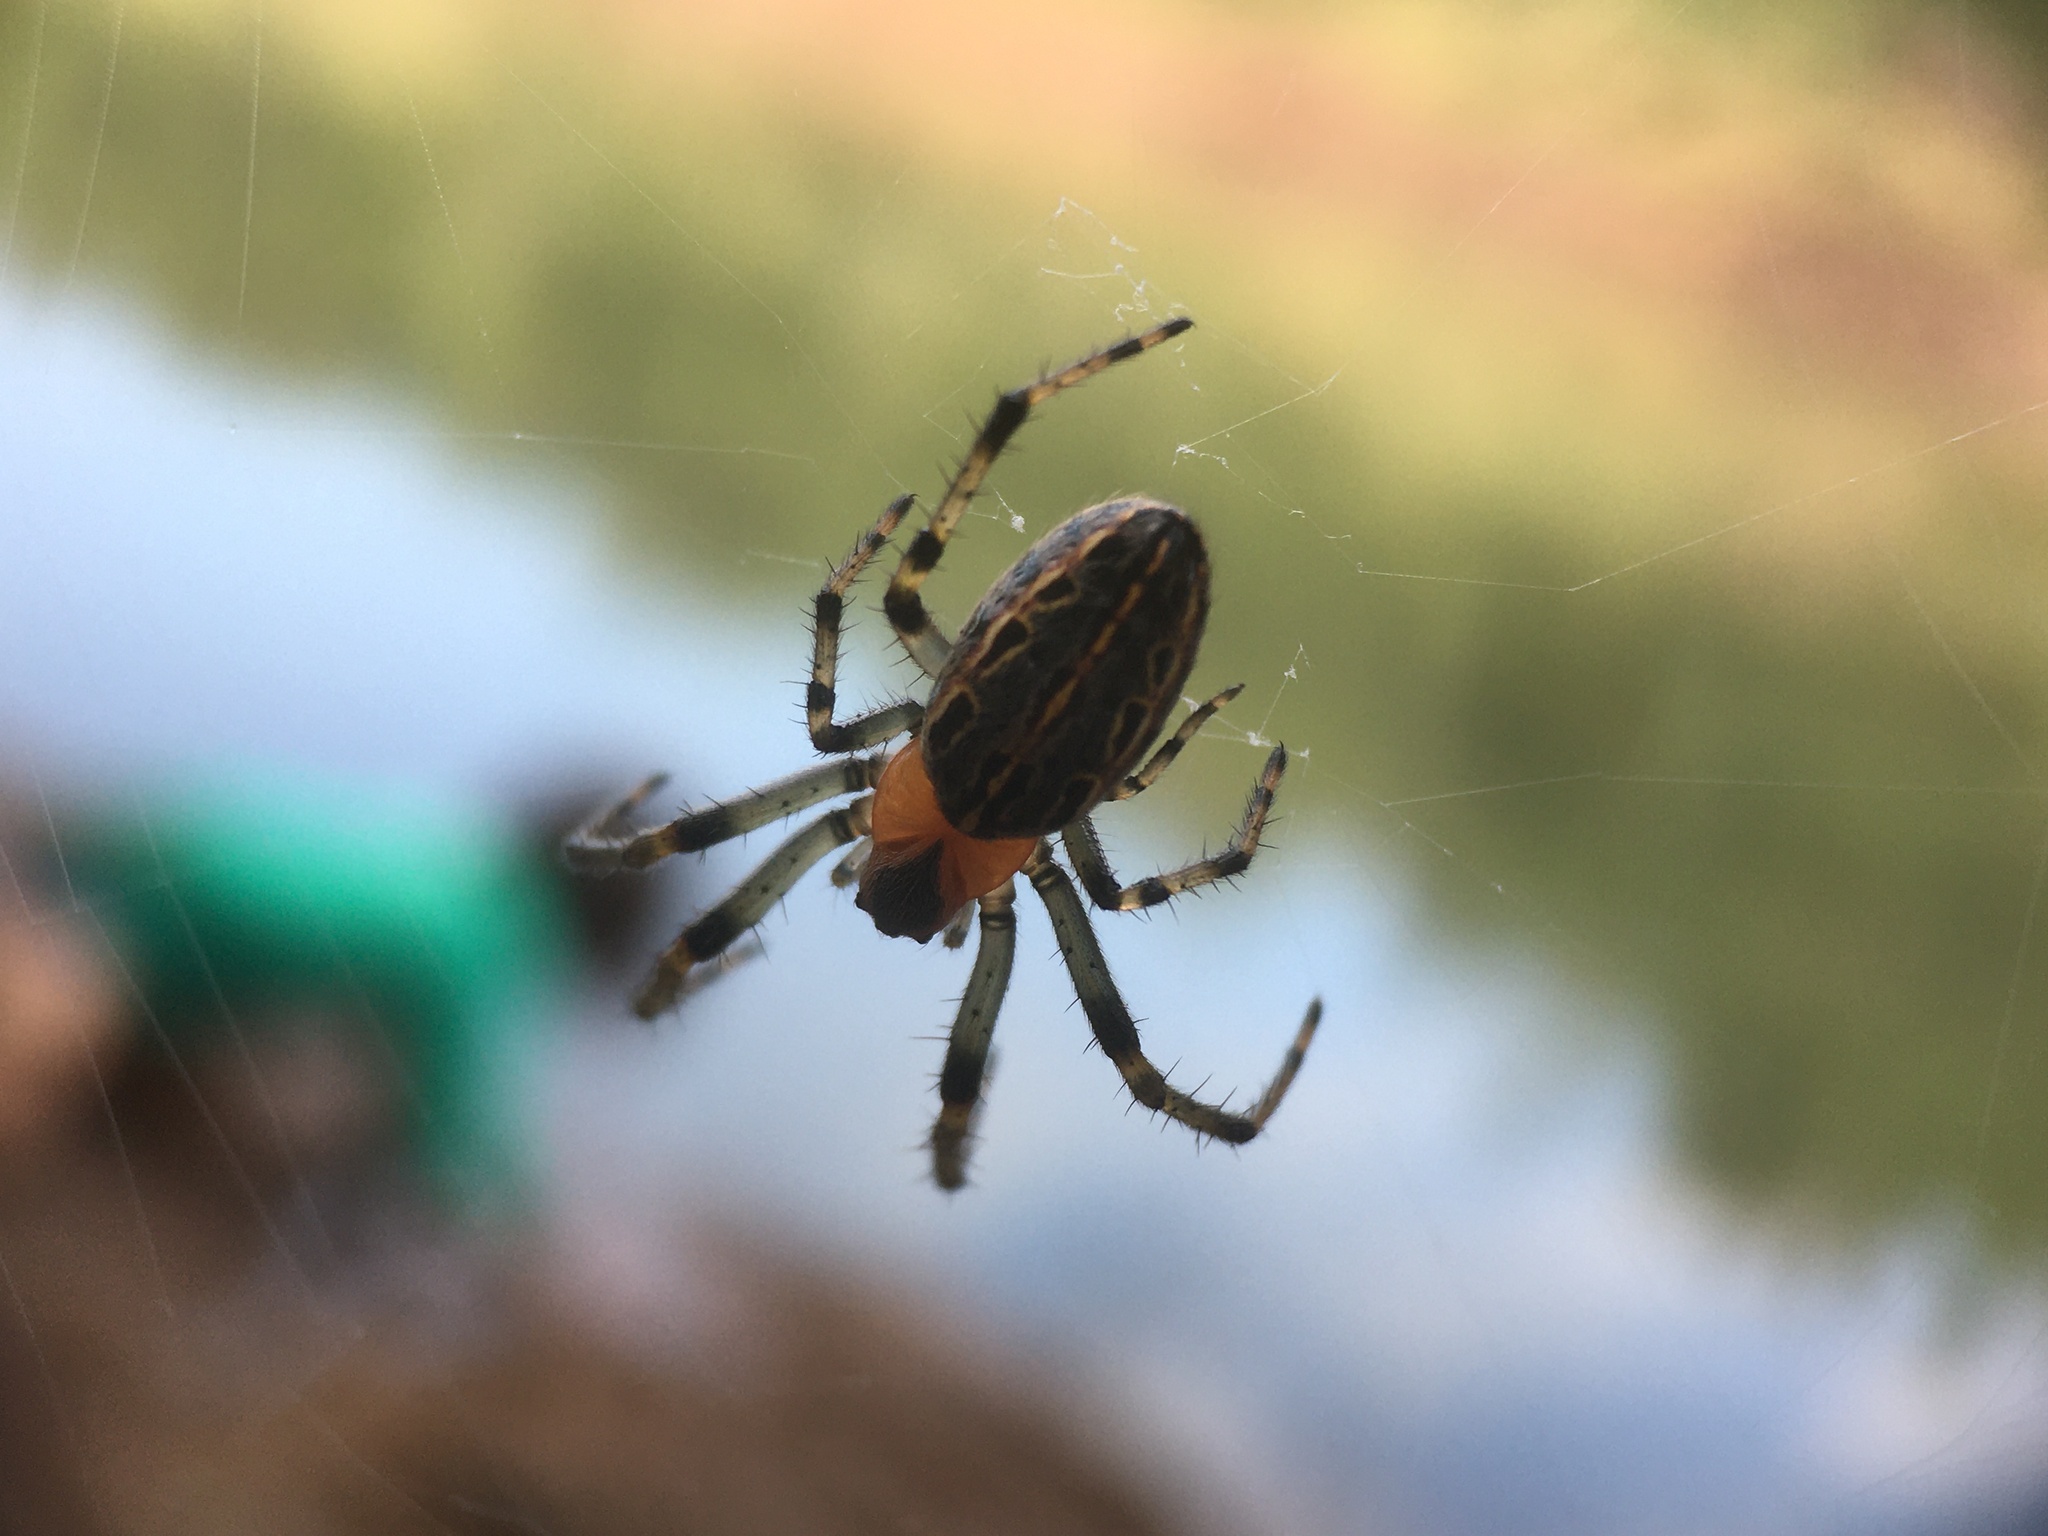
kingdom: Animalia
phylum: Arthropoda
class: Arachnida
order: Araneae
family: Araneidae
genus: Alpaida
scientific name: Alpaida veniliae
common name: Orb weavers
